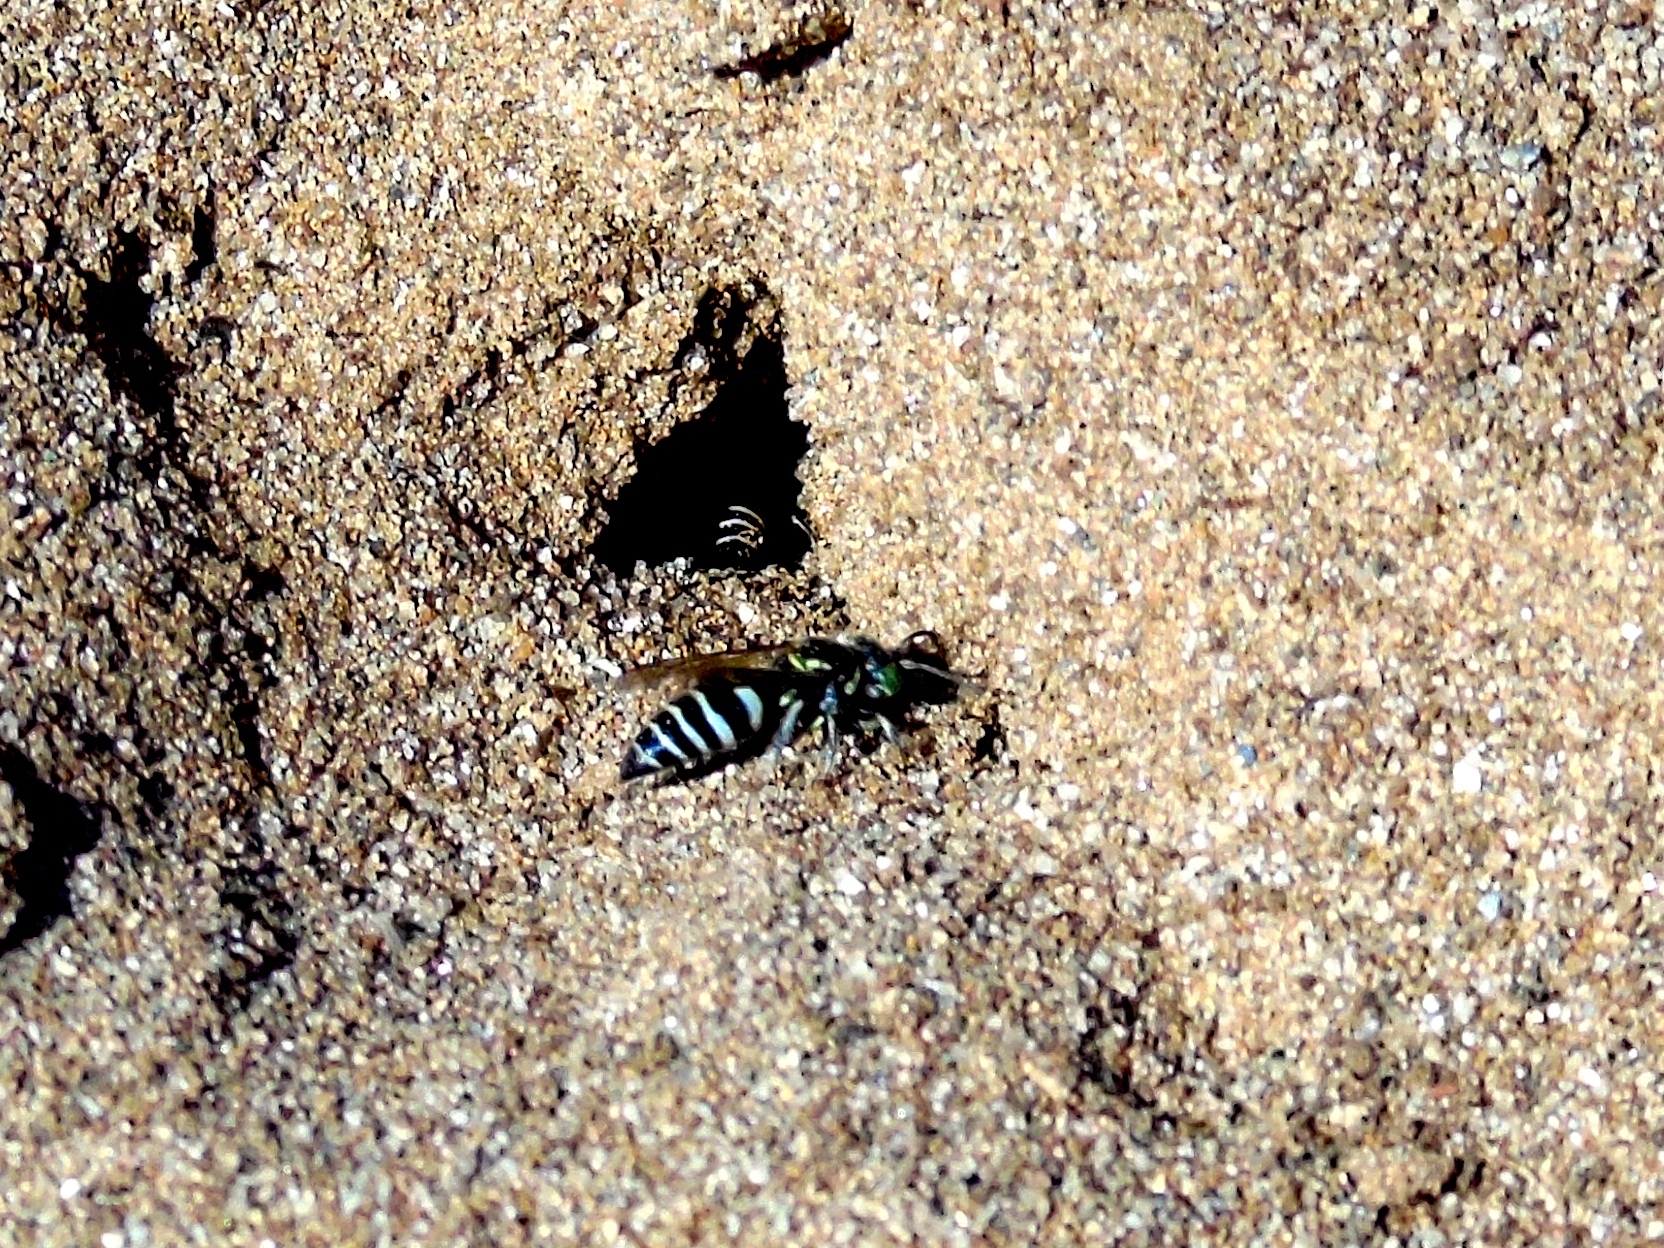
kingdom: Animalia
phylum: Arthropoda
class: Insecta
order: Hymenoptera
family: Crabronidae
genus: Bembecinus
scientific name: Bembecinus
